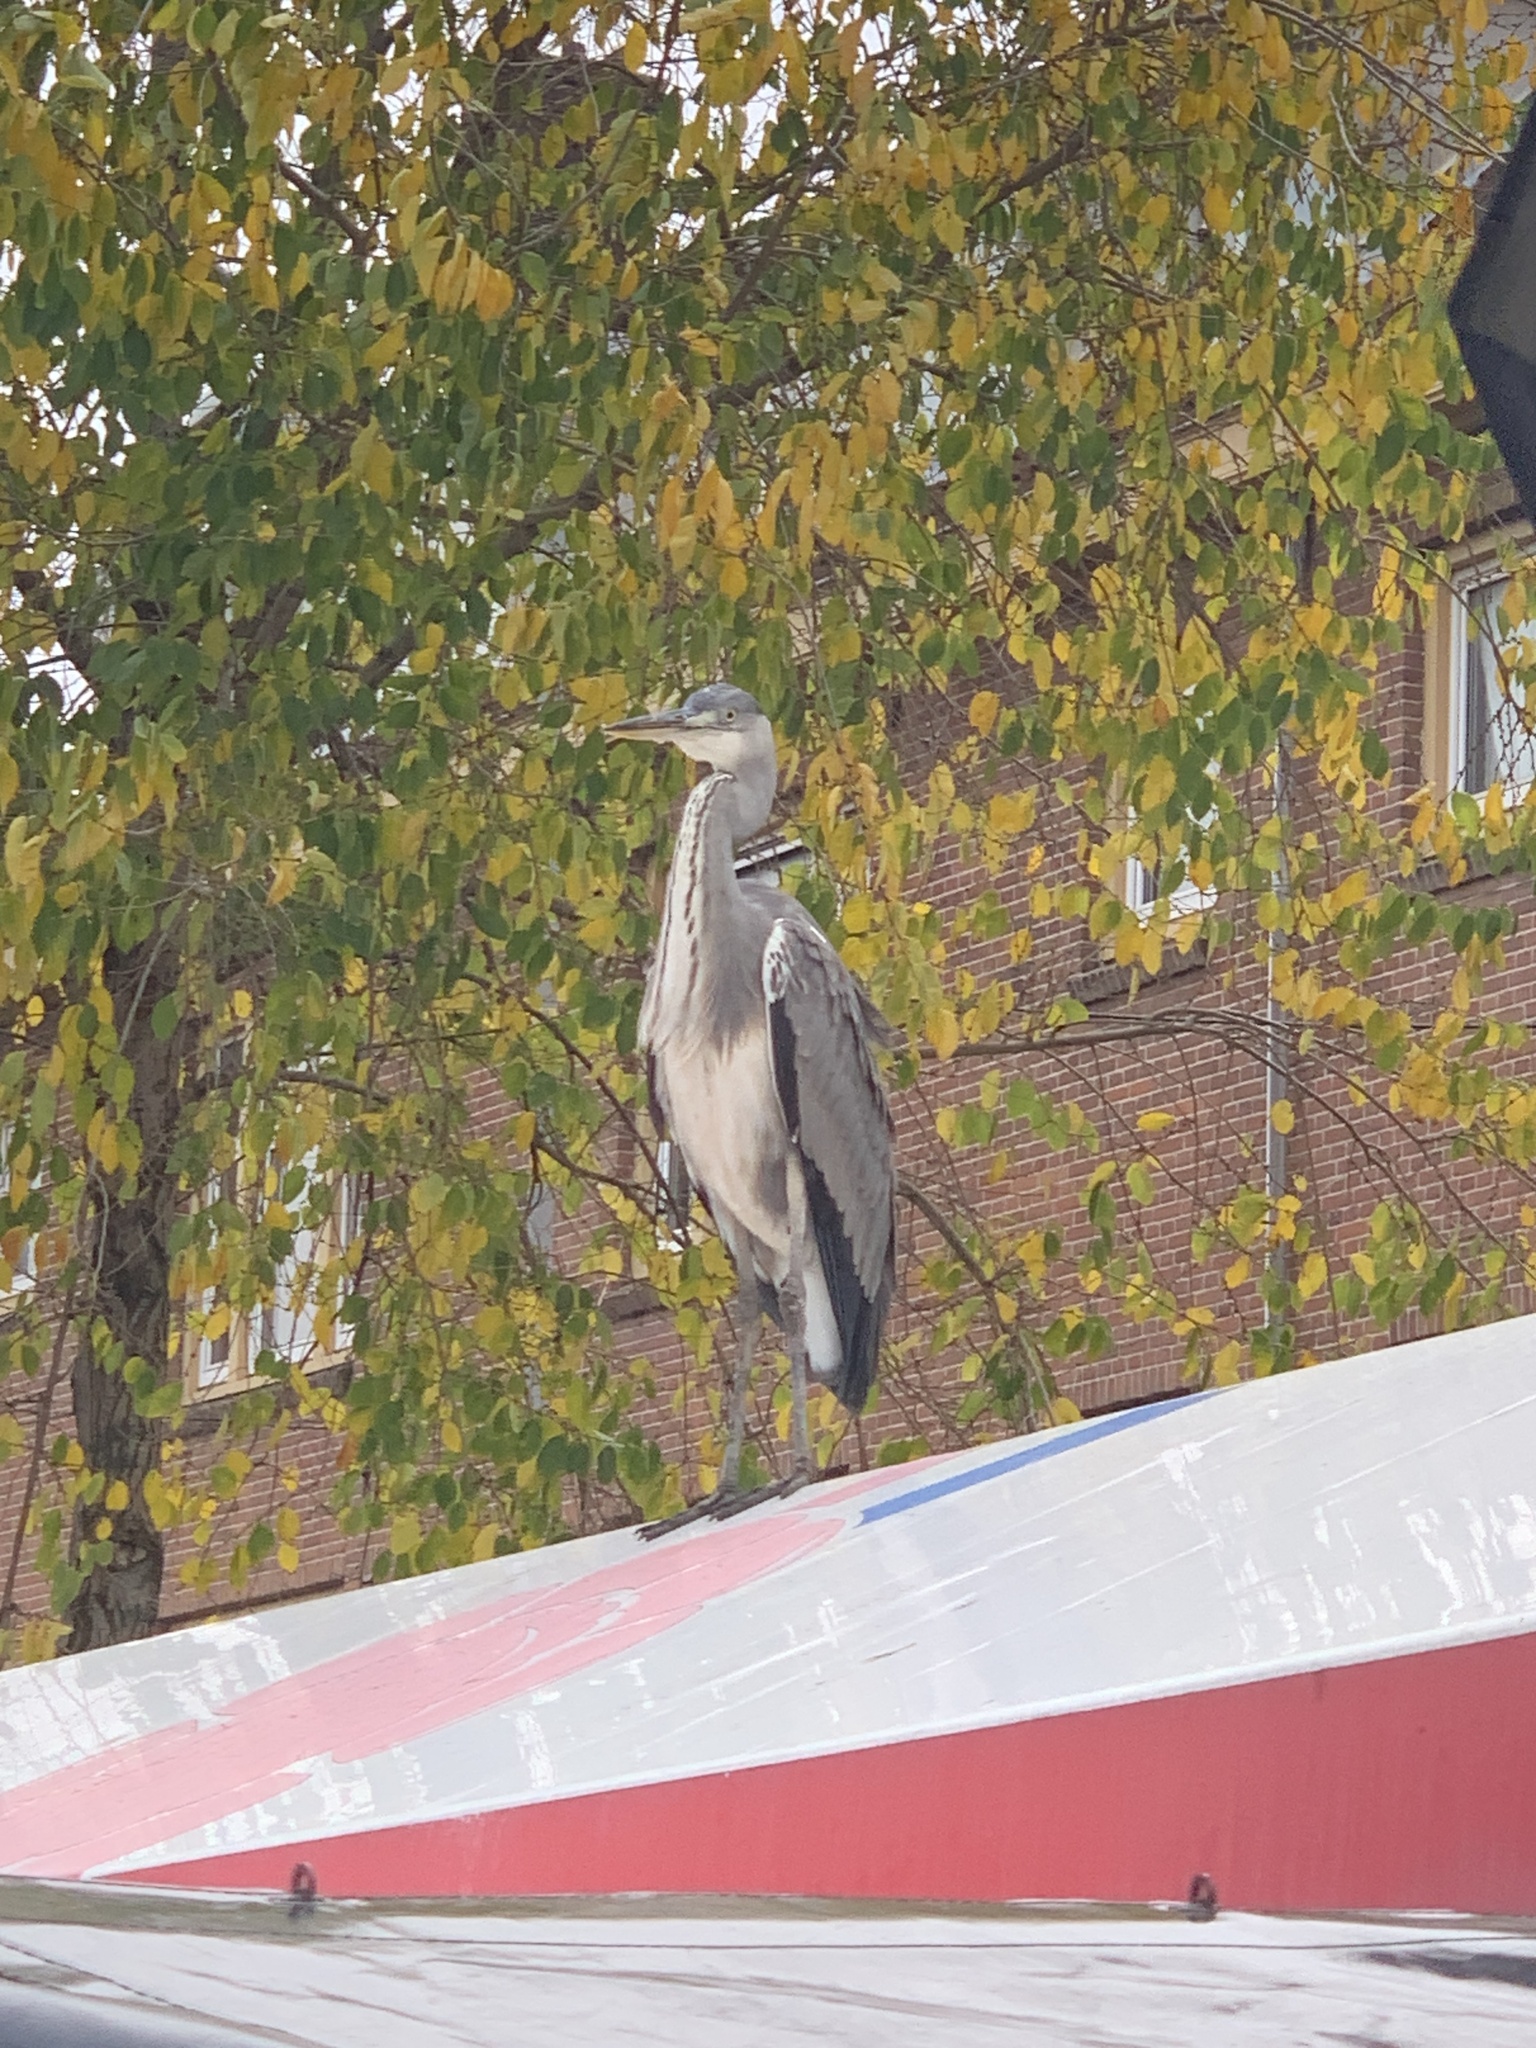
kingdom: Animalia
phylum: Chordata
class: Aves
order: Pelecaniformes
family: Ardeidae
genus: Ardea
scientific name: Ardea cinerea
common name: Grey heron
